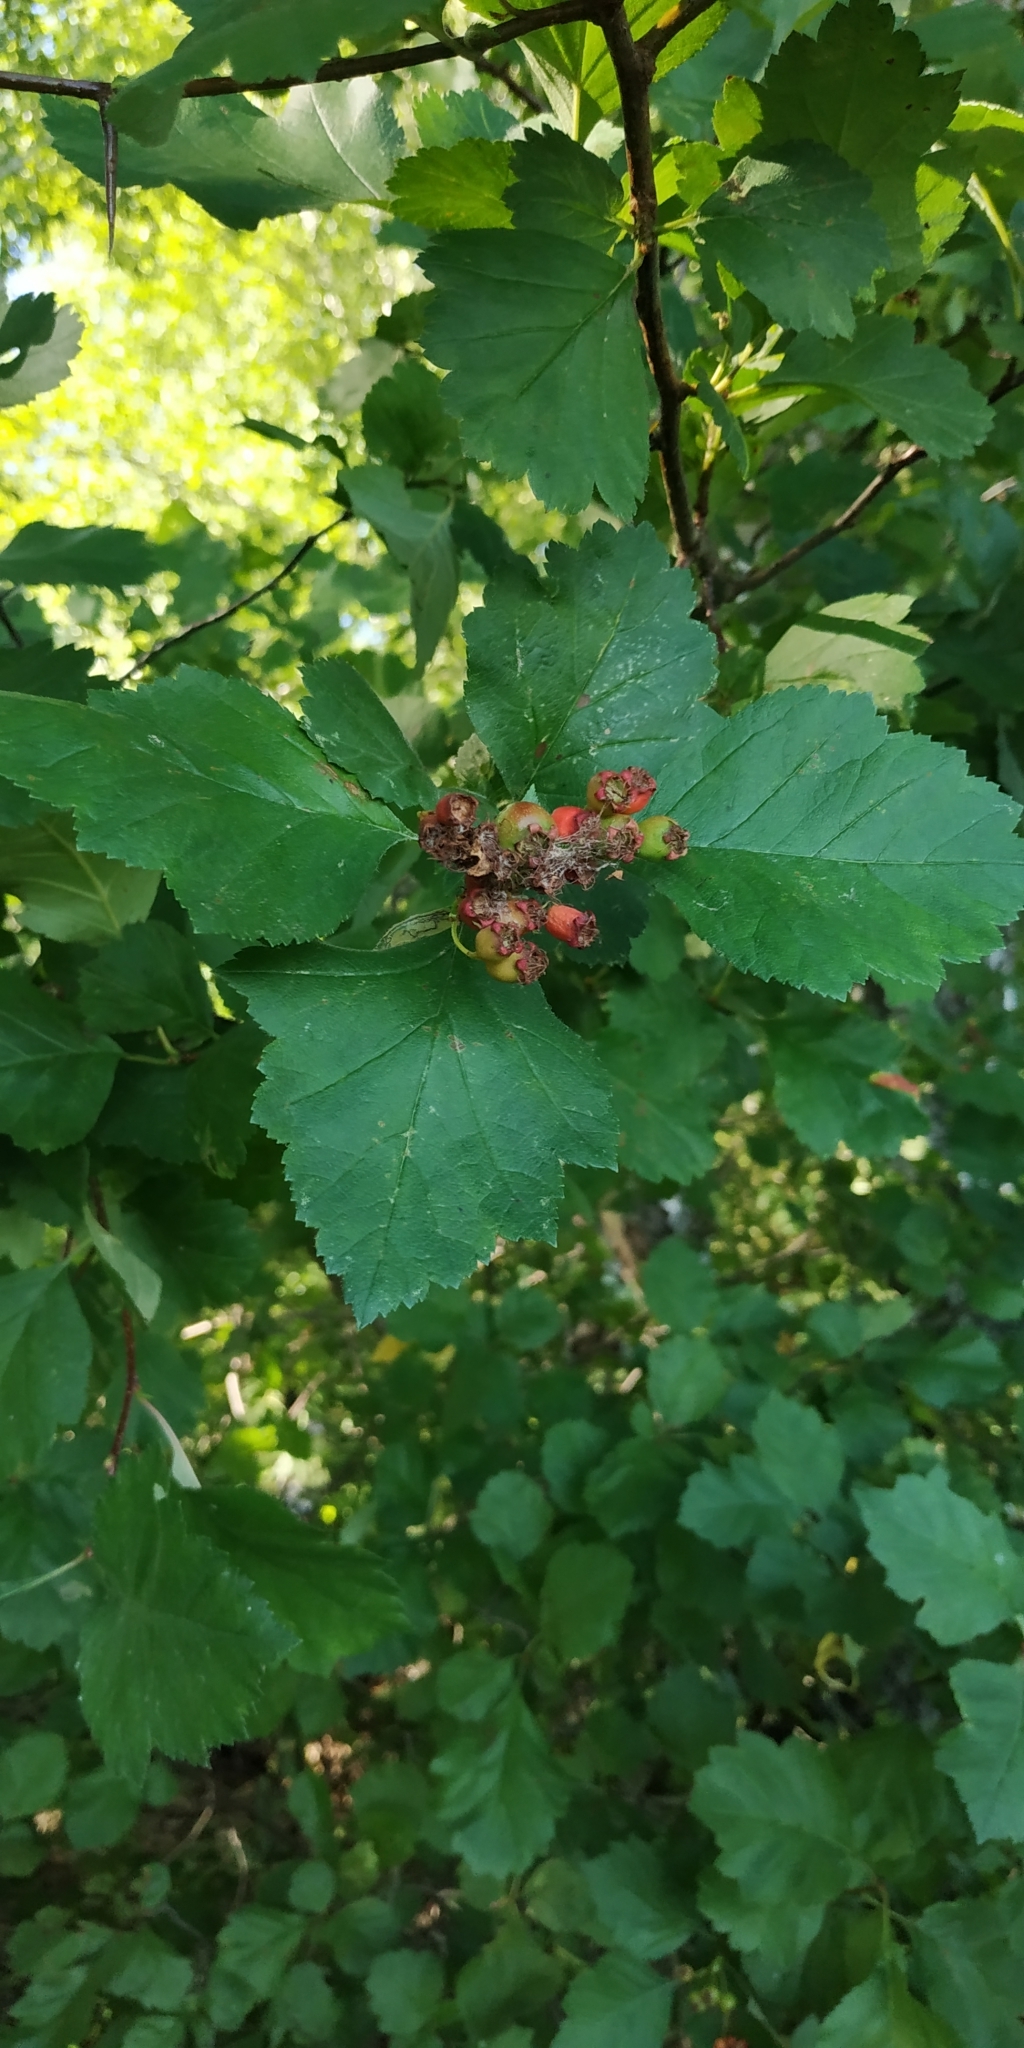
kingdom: Plantae
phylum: Tracheophyta
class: Magnoliopsida
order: Rosales
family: Rosaceae
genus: Crataegus
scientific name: Crataegus sanguinea
